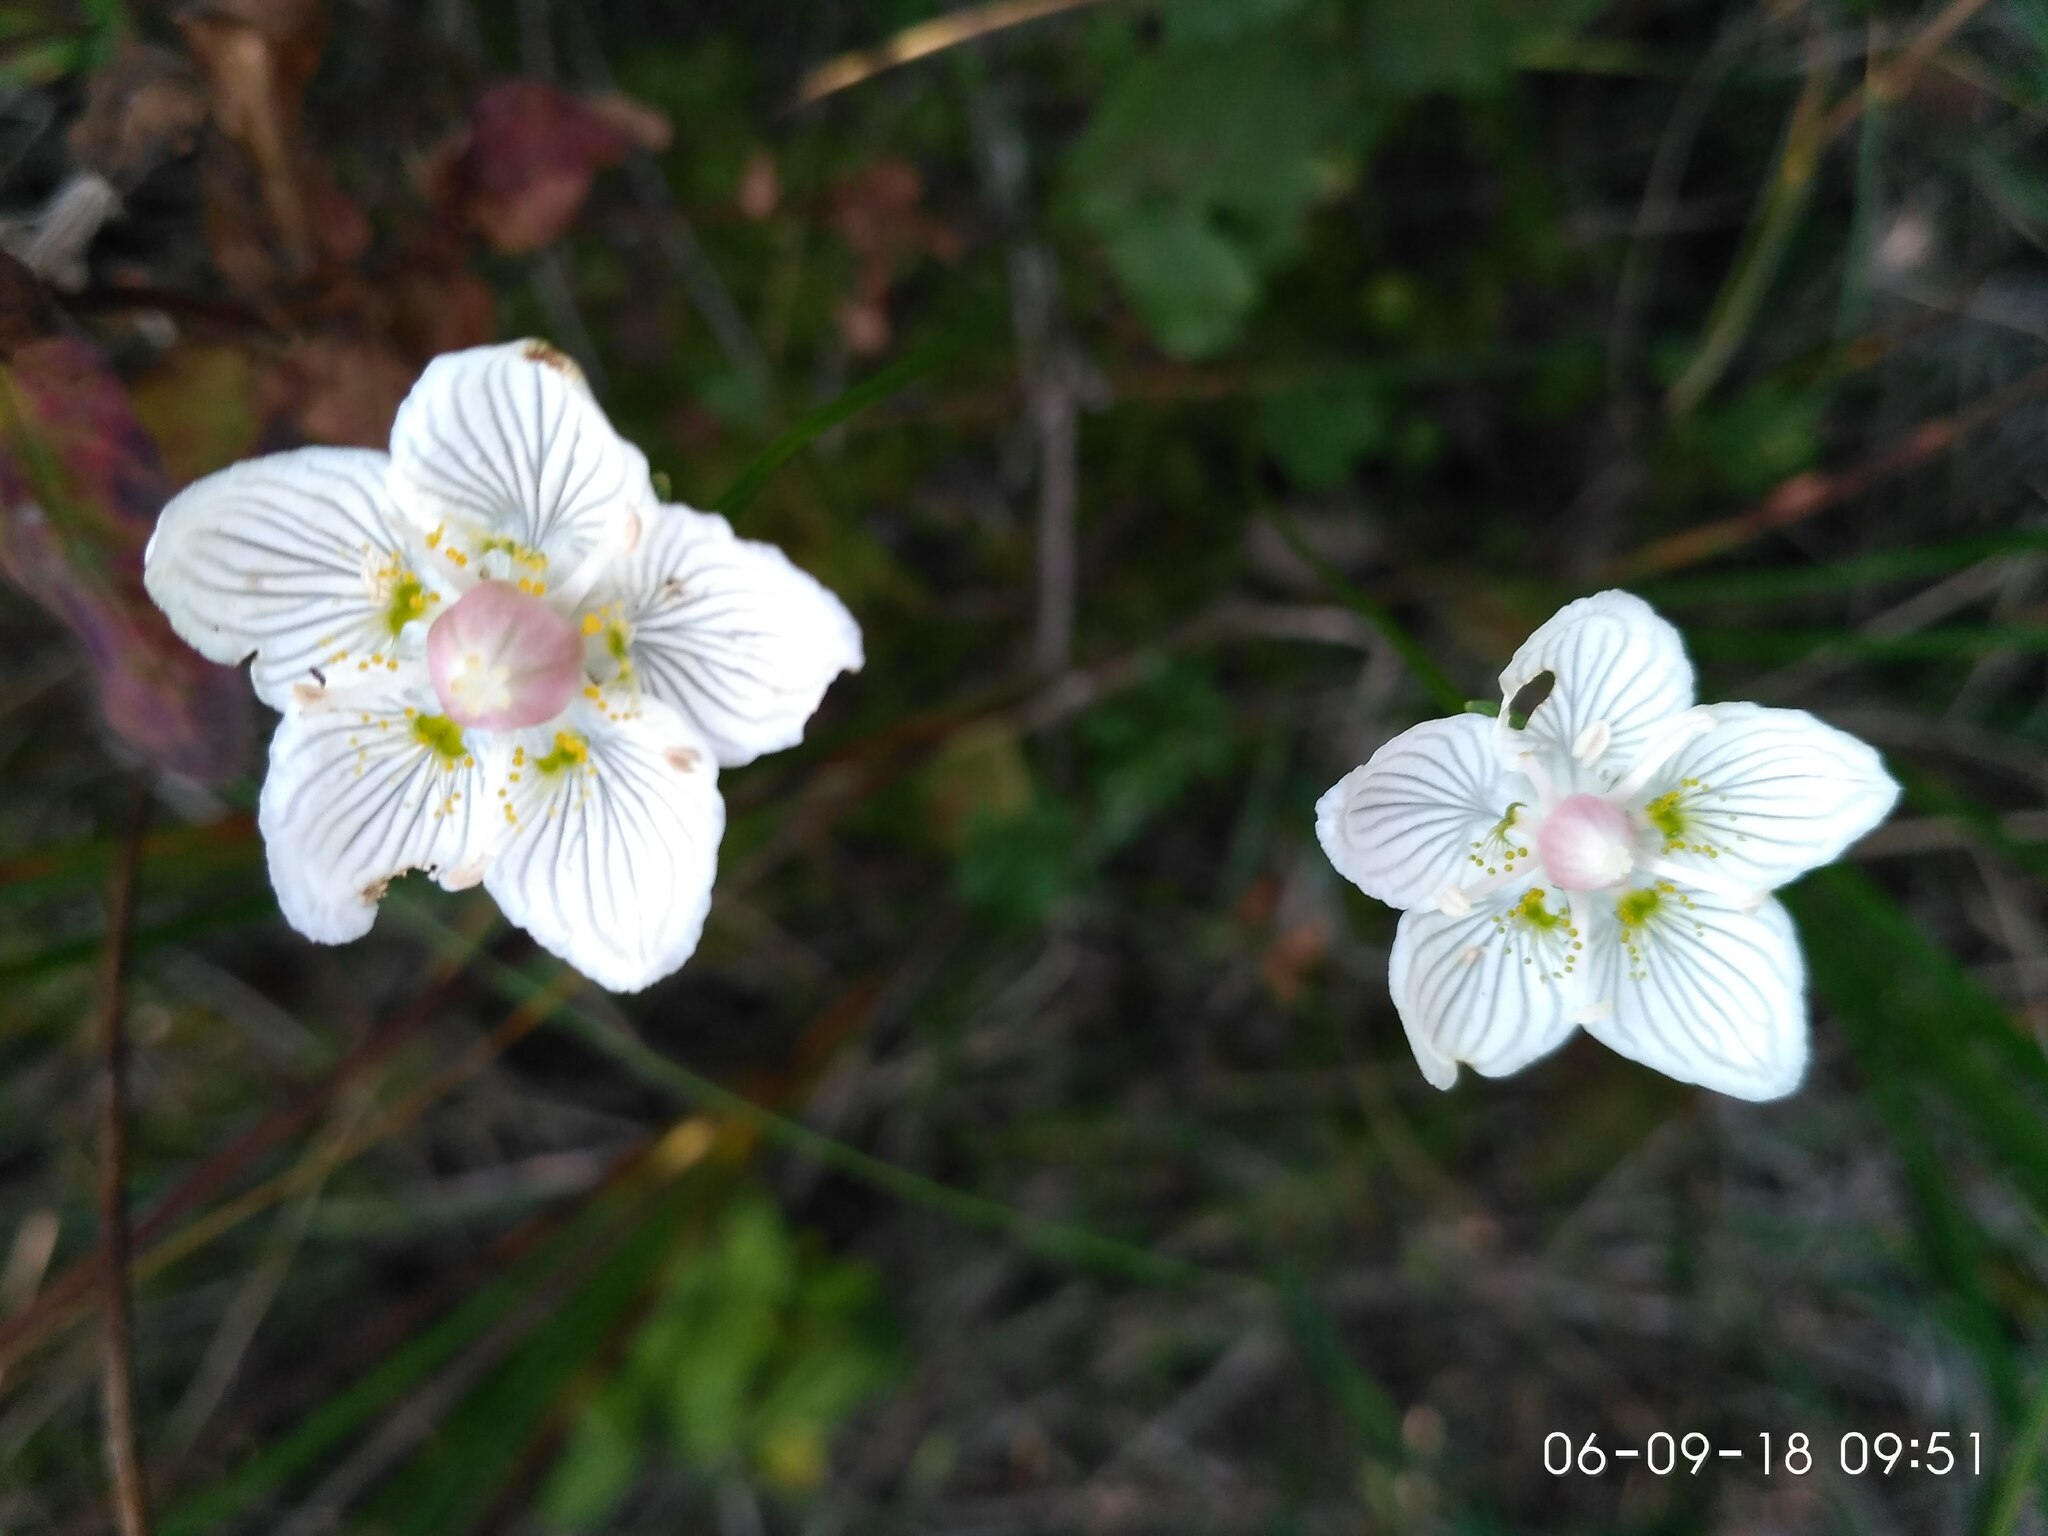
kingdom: Plantae
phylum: Tracheophyta
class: Magnoliopsida
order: Celastrales
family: Parnassiaceae
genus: Parnassia
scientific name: Parnassia palustris
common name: Grass-of-parnassus
